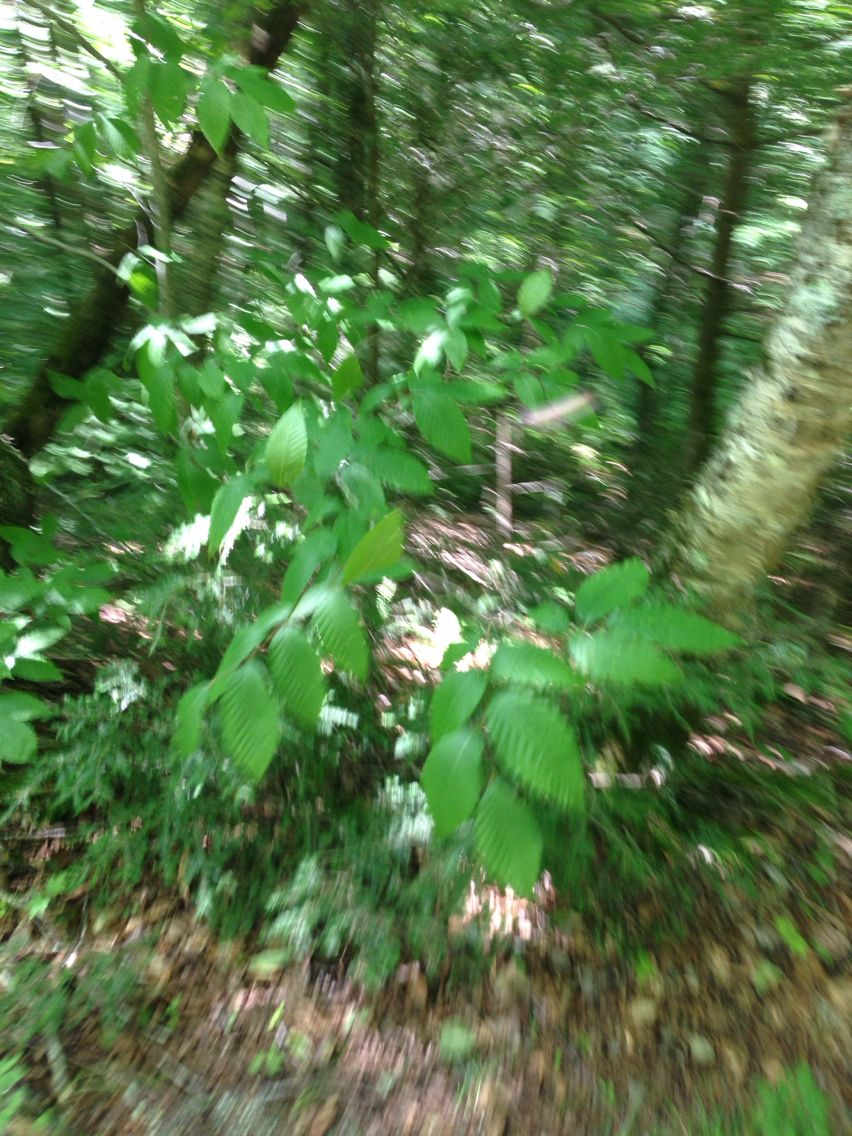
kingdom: Plantae
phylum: Tracheophyta
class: Magnoliopsida
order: Fagales
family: Fagaceae
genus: Fagus
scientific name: Fagus grandifolia
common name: American beech
